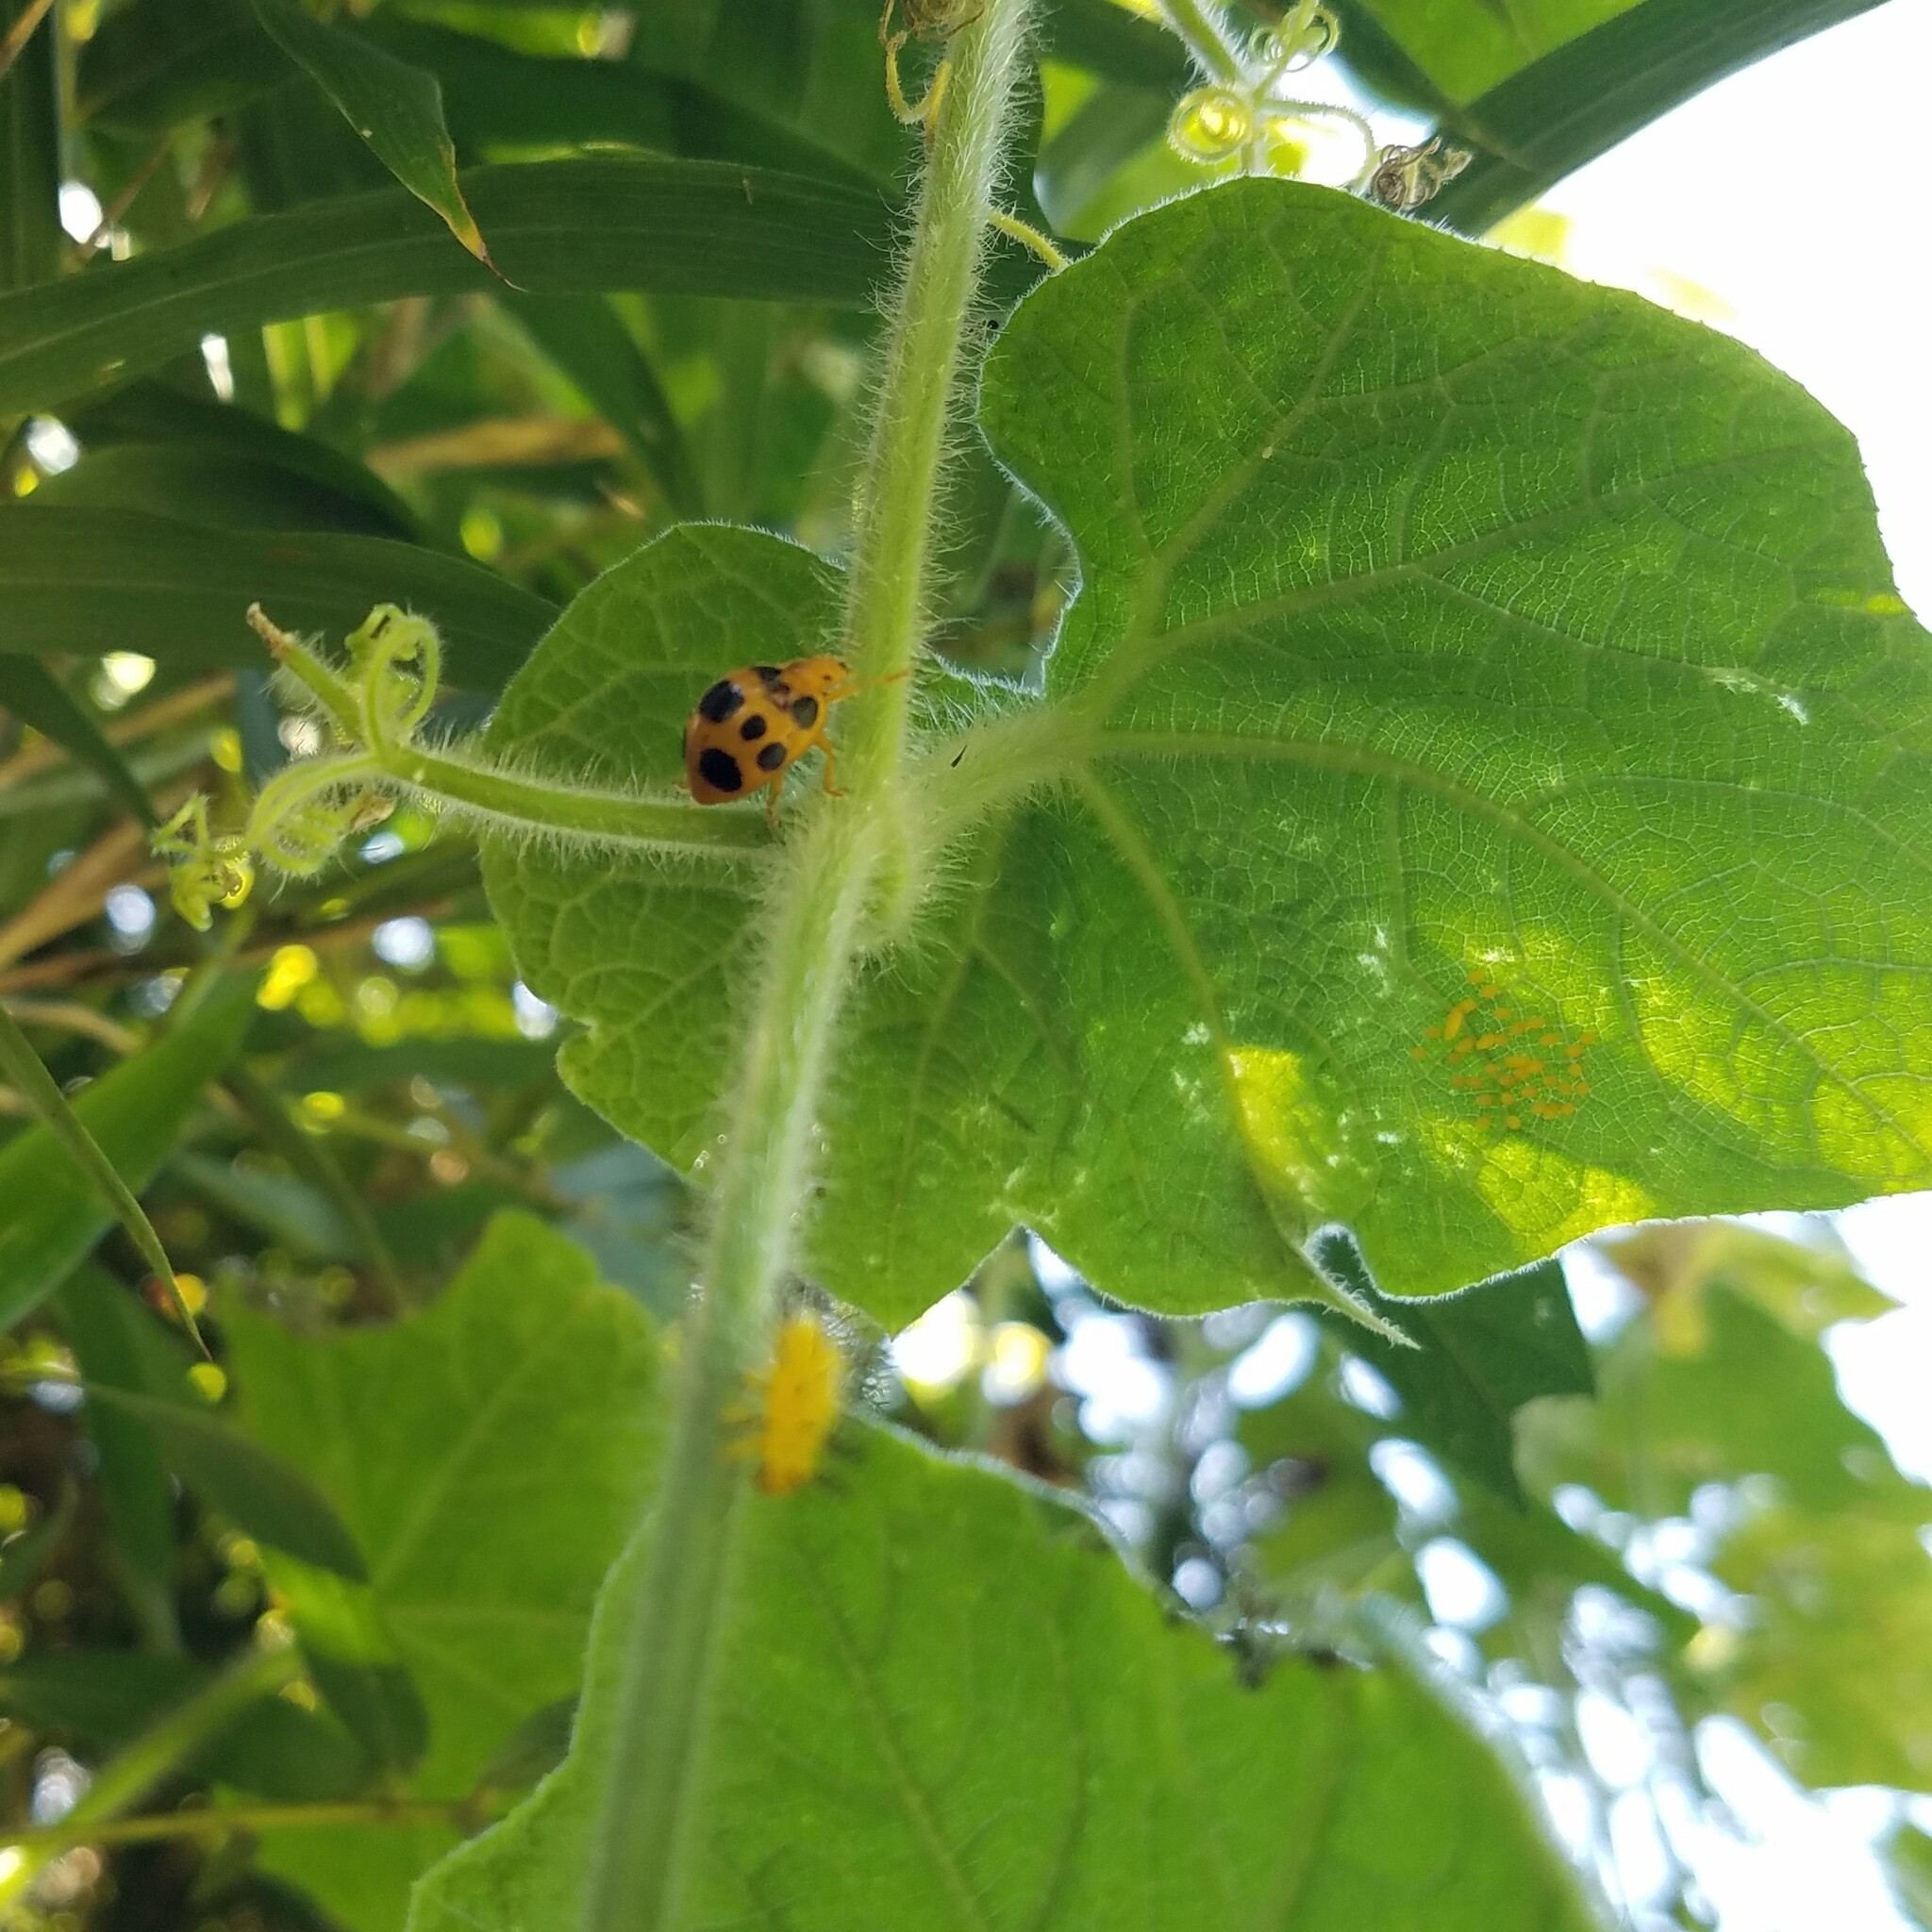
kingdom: Animalia
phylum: Arthropoda
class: Insecta
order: Coleoptera
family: Coccinellidae
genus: Epilachna
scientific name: Epilachna borealis
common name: Squash beetle
